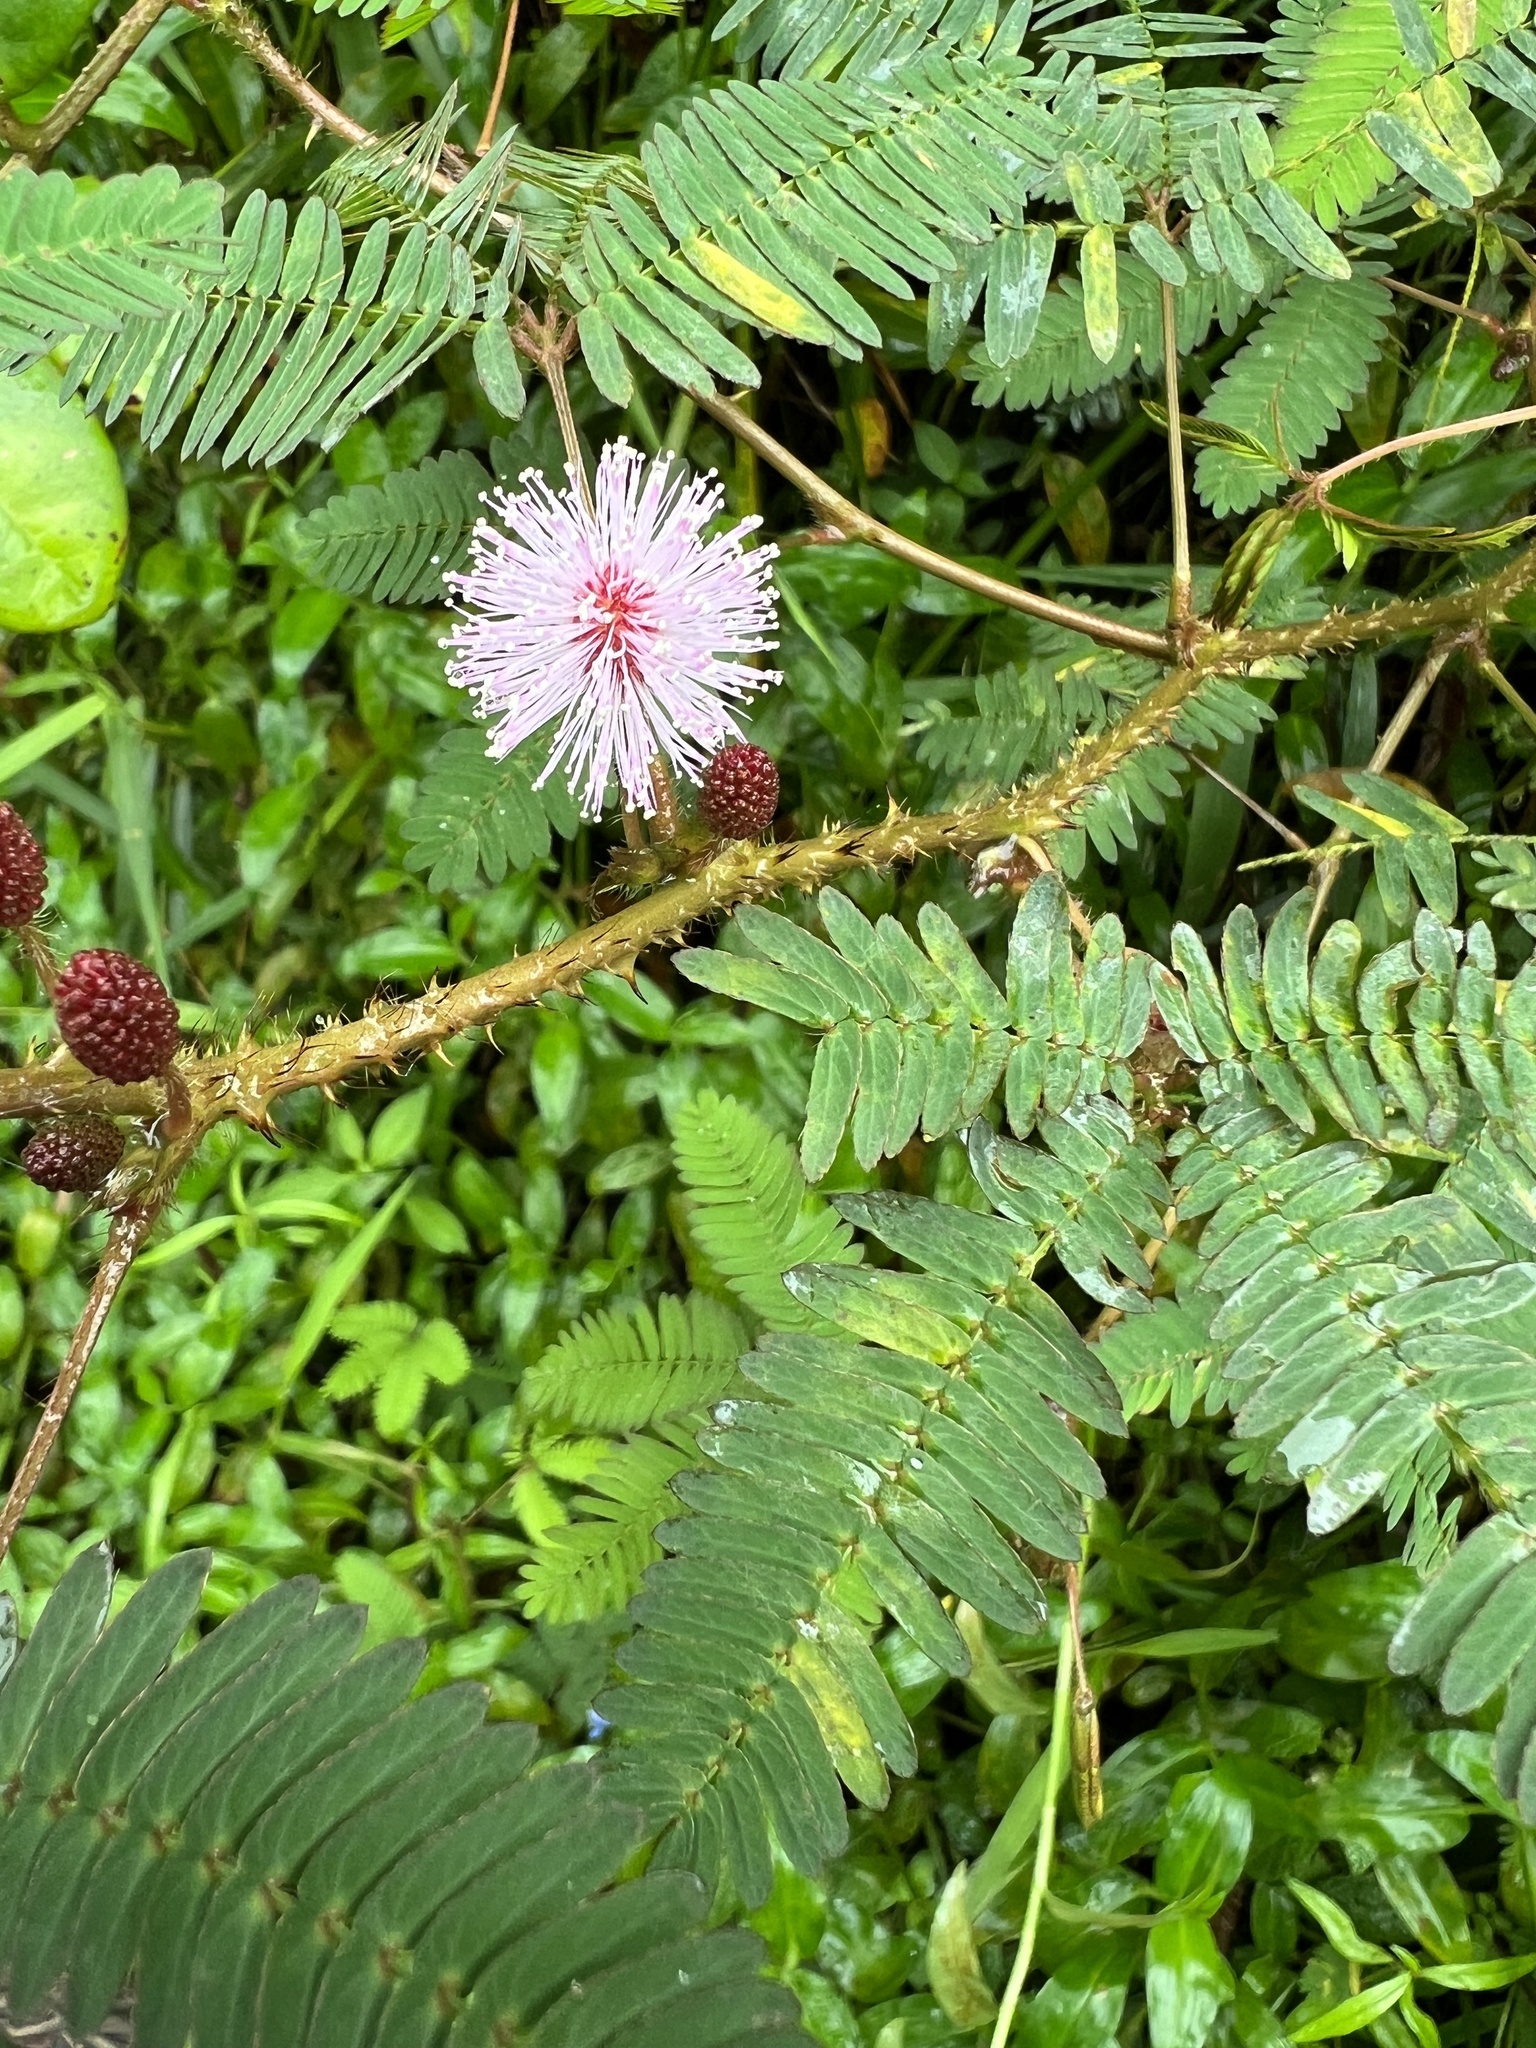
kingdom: Plantae
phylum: Tracheophyta
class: Magnoliopsida
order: Fabales
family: Fabaceae
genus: Mimosa
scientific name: Mimosa pudica
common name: Sensitive plant
